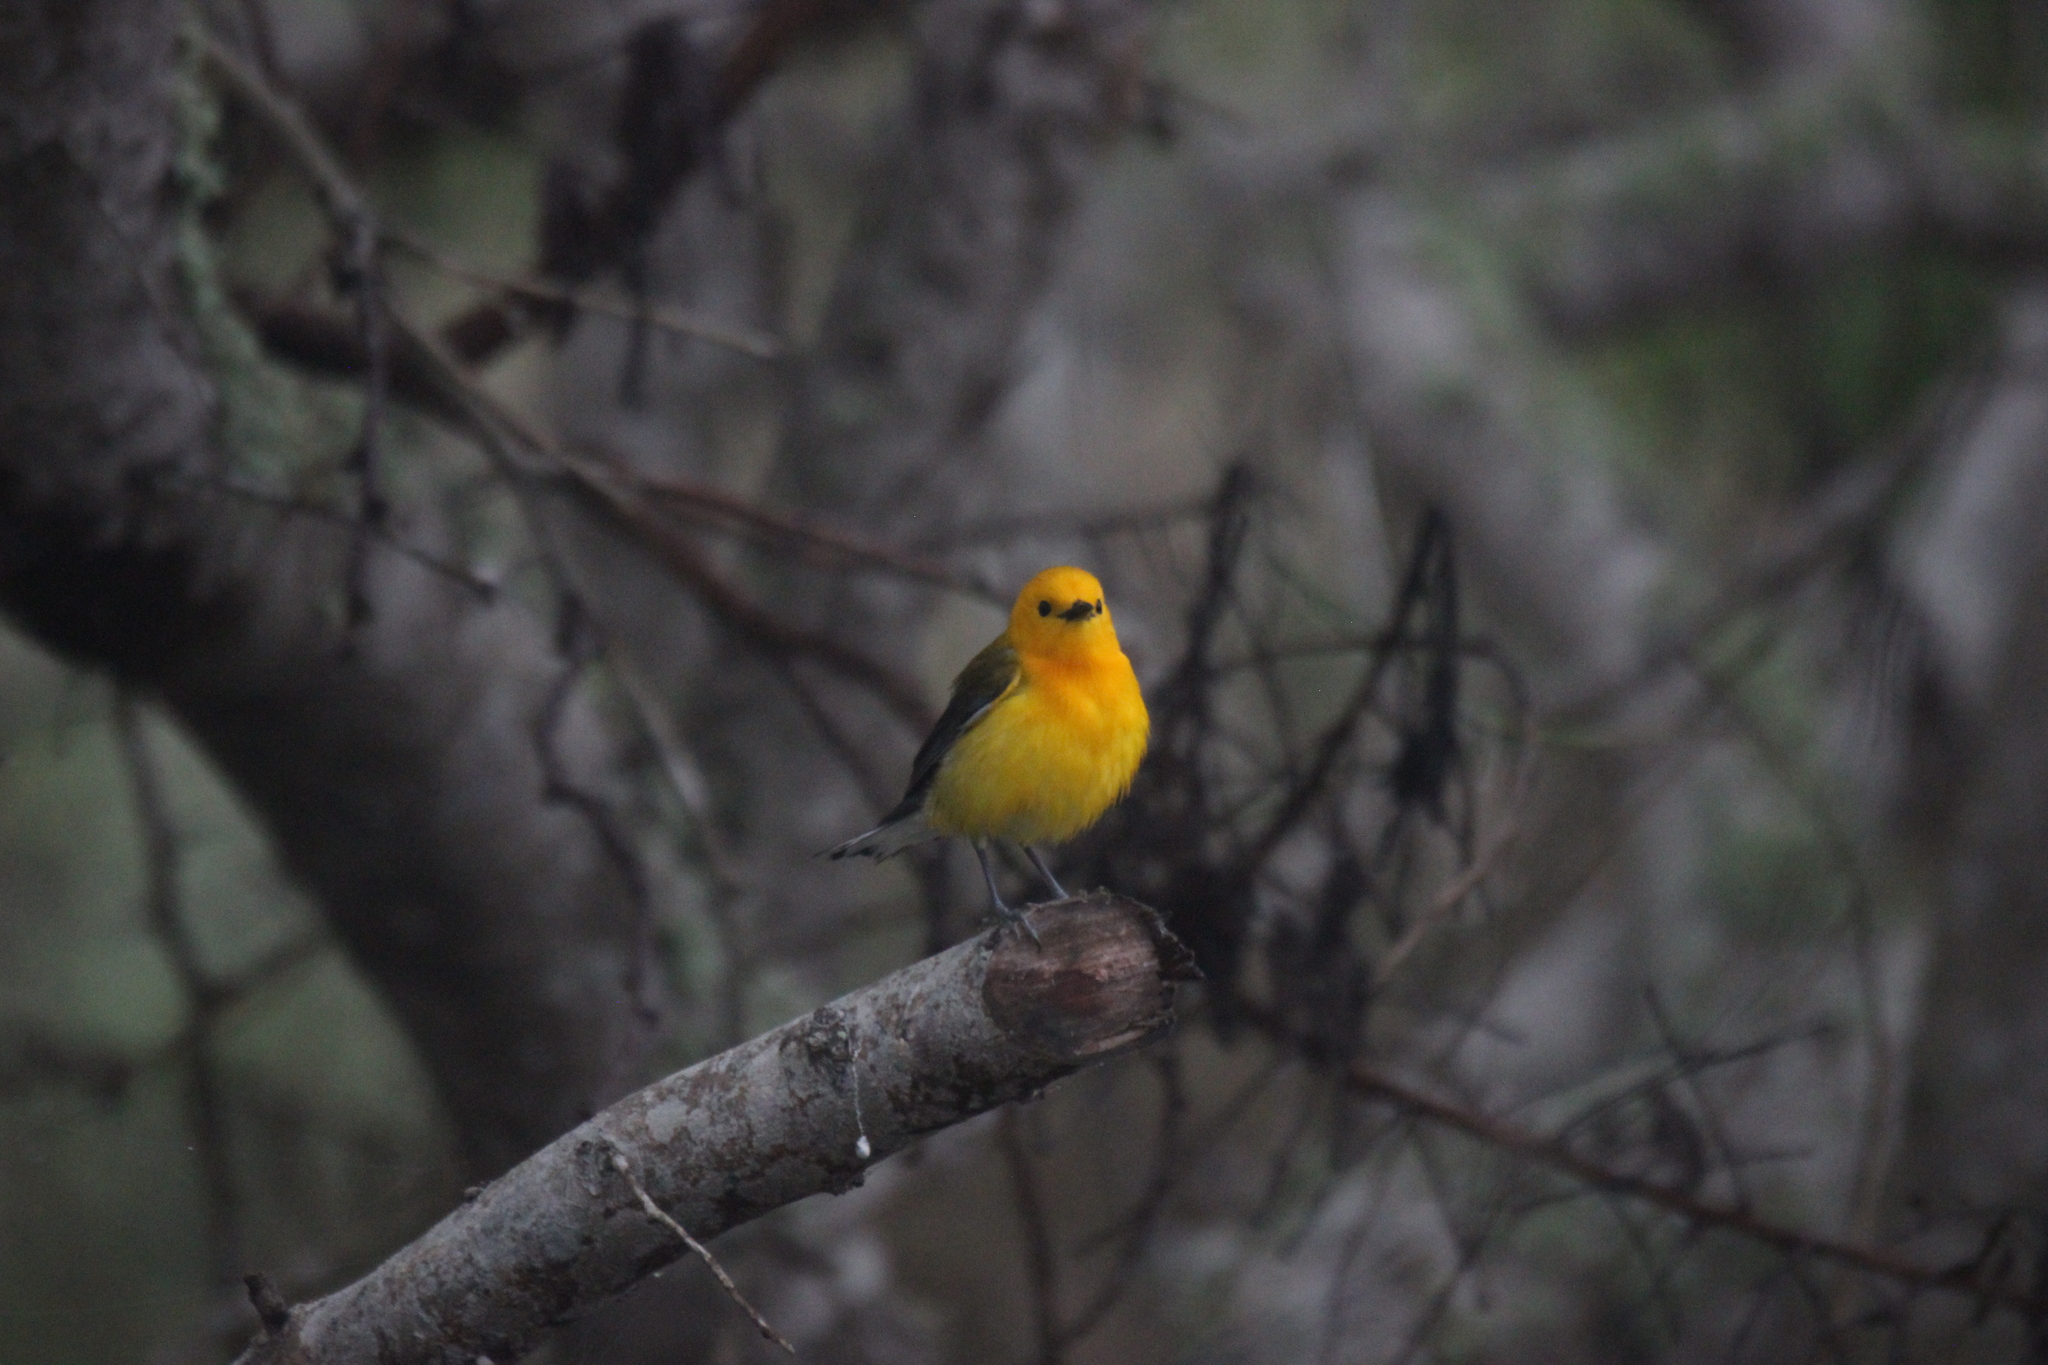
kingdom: Animalia
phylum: Chordata
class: Aves
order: Passeriformes
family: Parulidae
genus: Protonotaria
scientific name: Protonotaria citrea
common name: Prothonotary warbler
